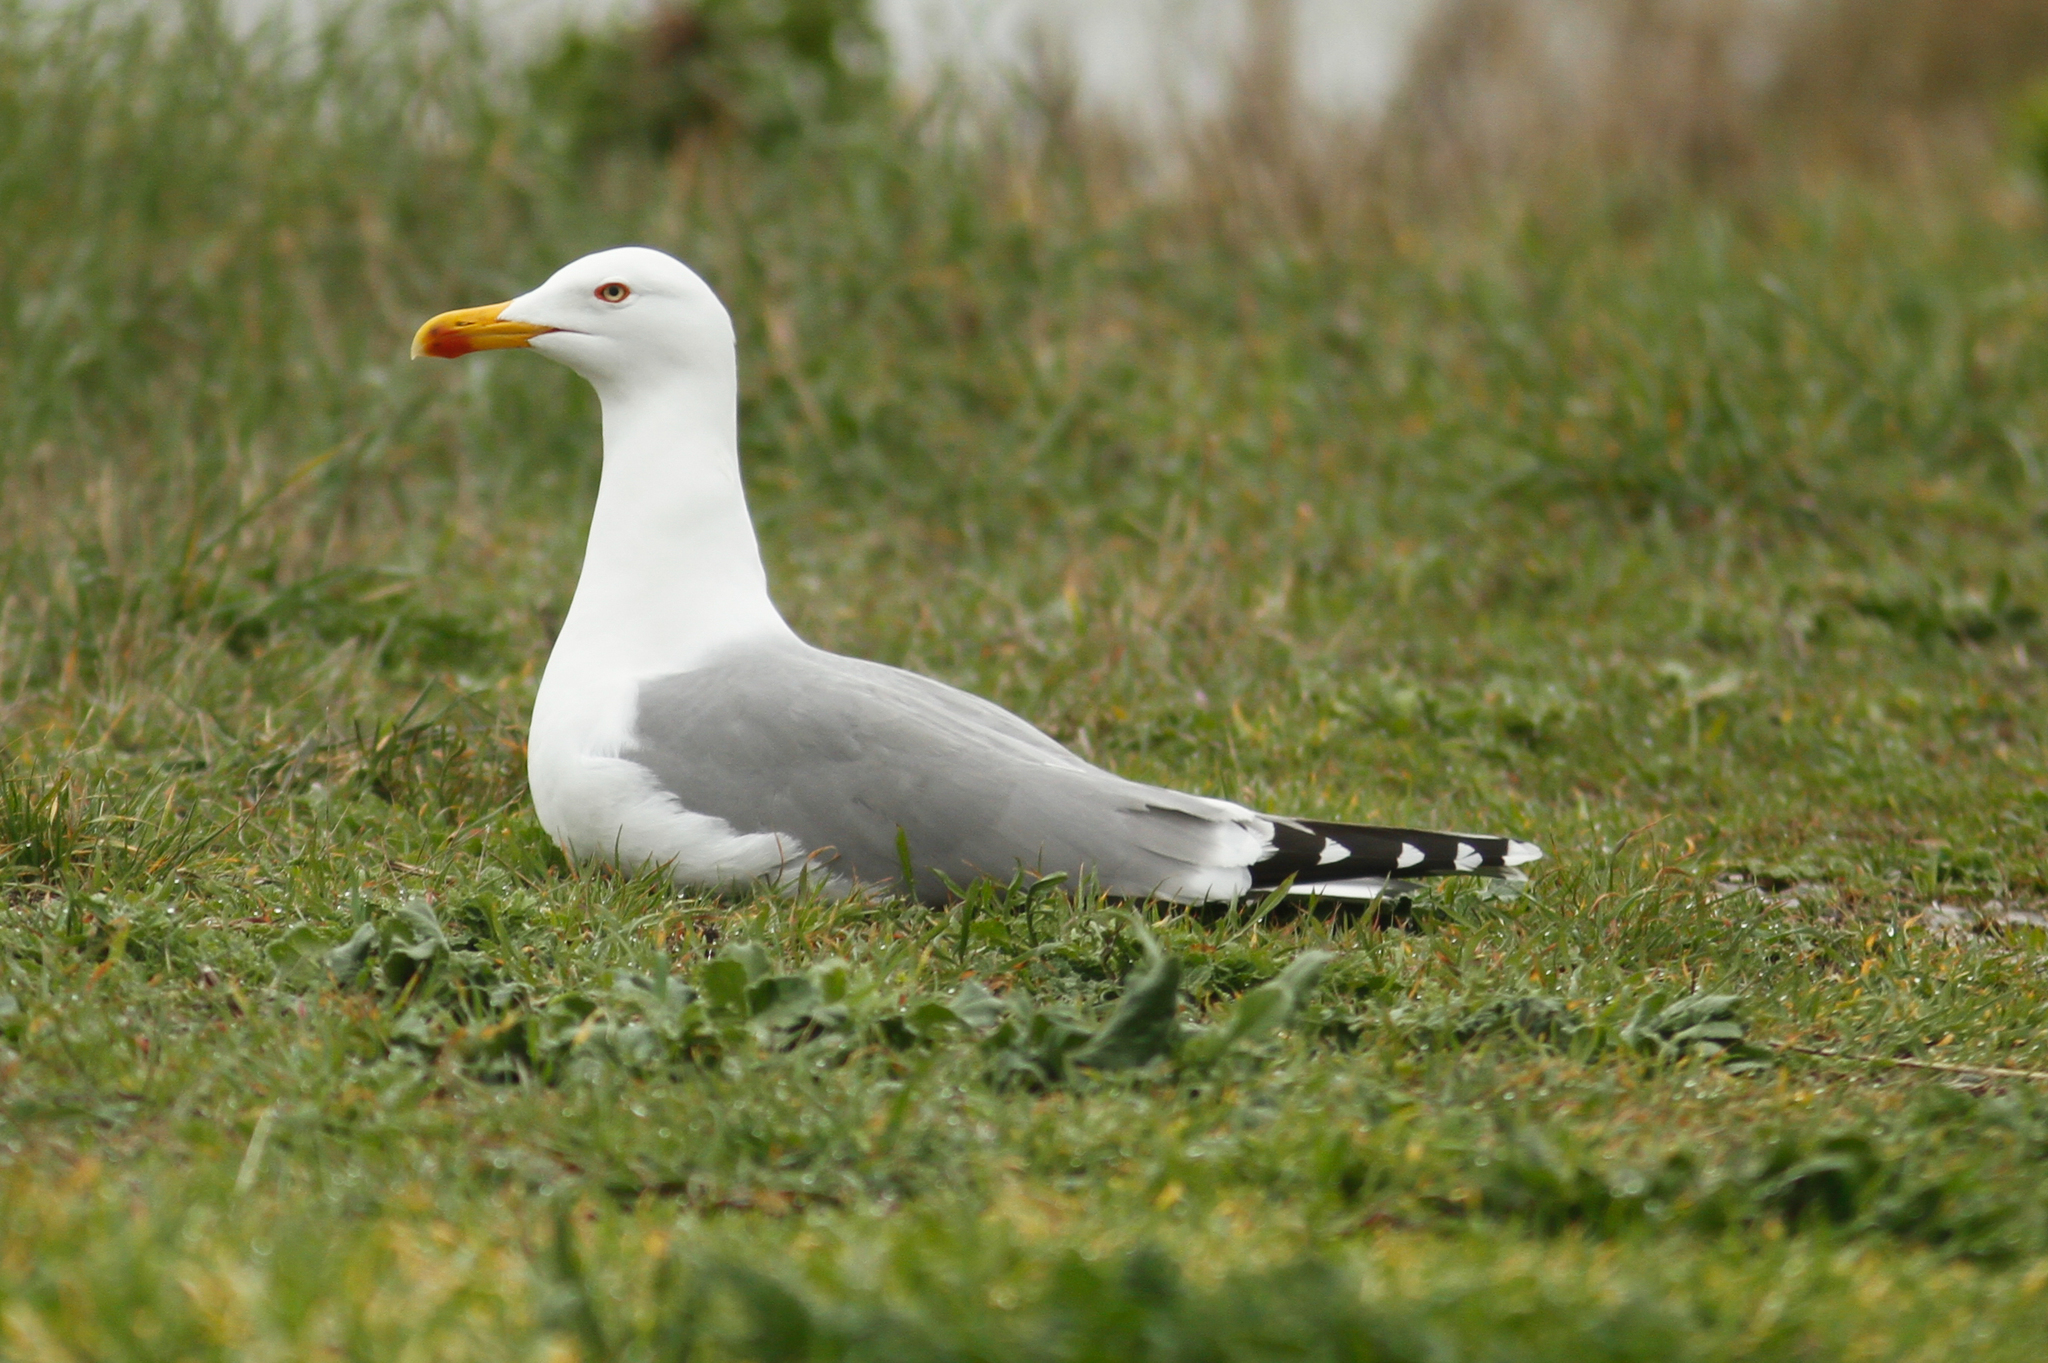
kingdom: Animalia
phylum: Chordata
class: Aves
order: Charadriiformes
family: Laridae
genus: Larus
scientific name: Larus michahellis
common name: Yellow-legged gull
